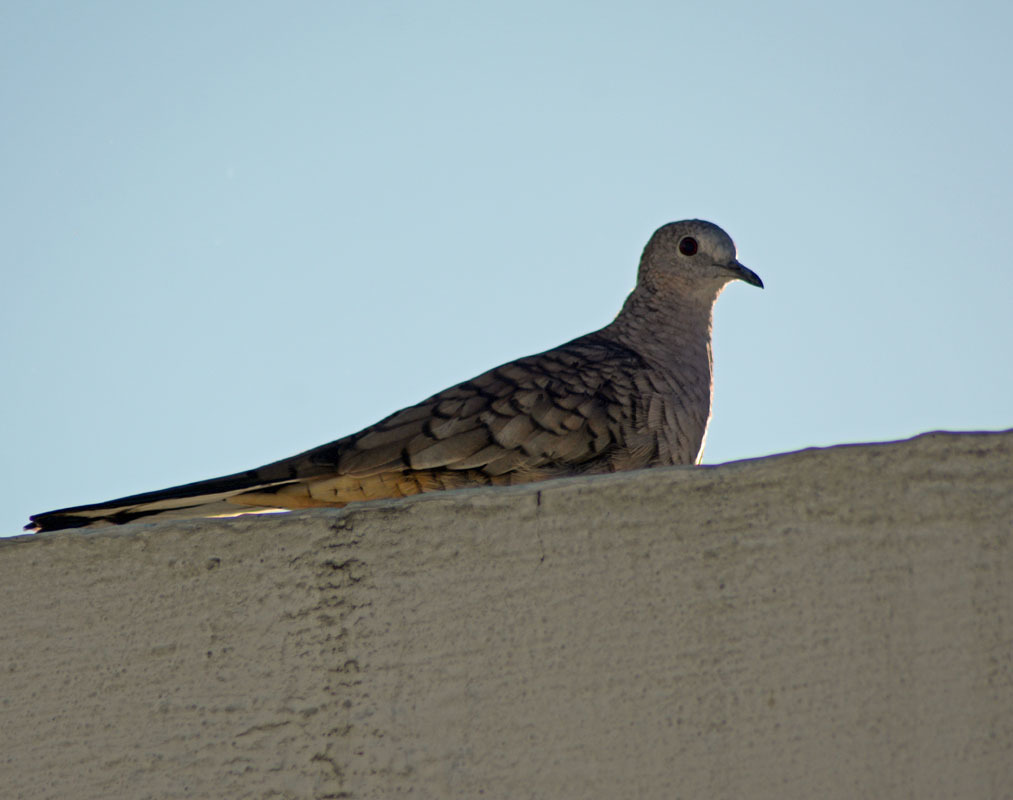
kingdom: Animalia
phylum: Chordata
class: Aves
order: Columbiformes
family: Columbidae
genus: Columbina
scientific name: Columbina inca
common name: Inca dove
